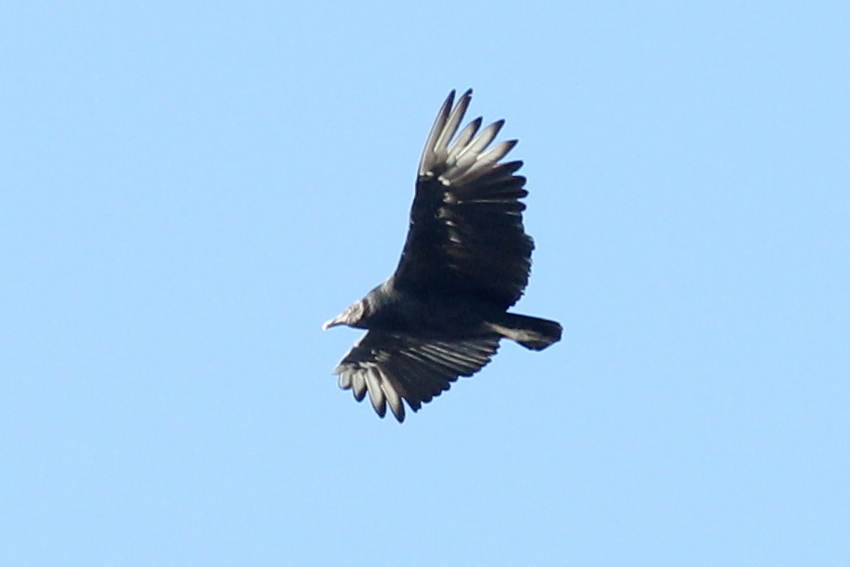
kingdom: Animalia
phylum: Chordata
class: Aves
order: Accipitriformes
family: Cathartidae
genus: Coragyps
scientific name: Coragyps atratus
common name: Black vulture
